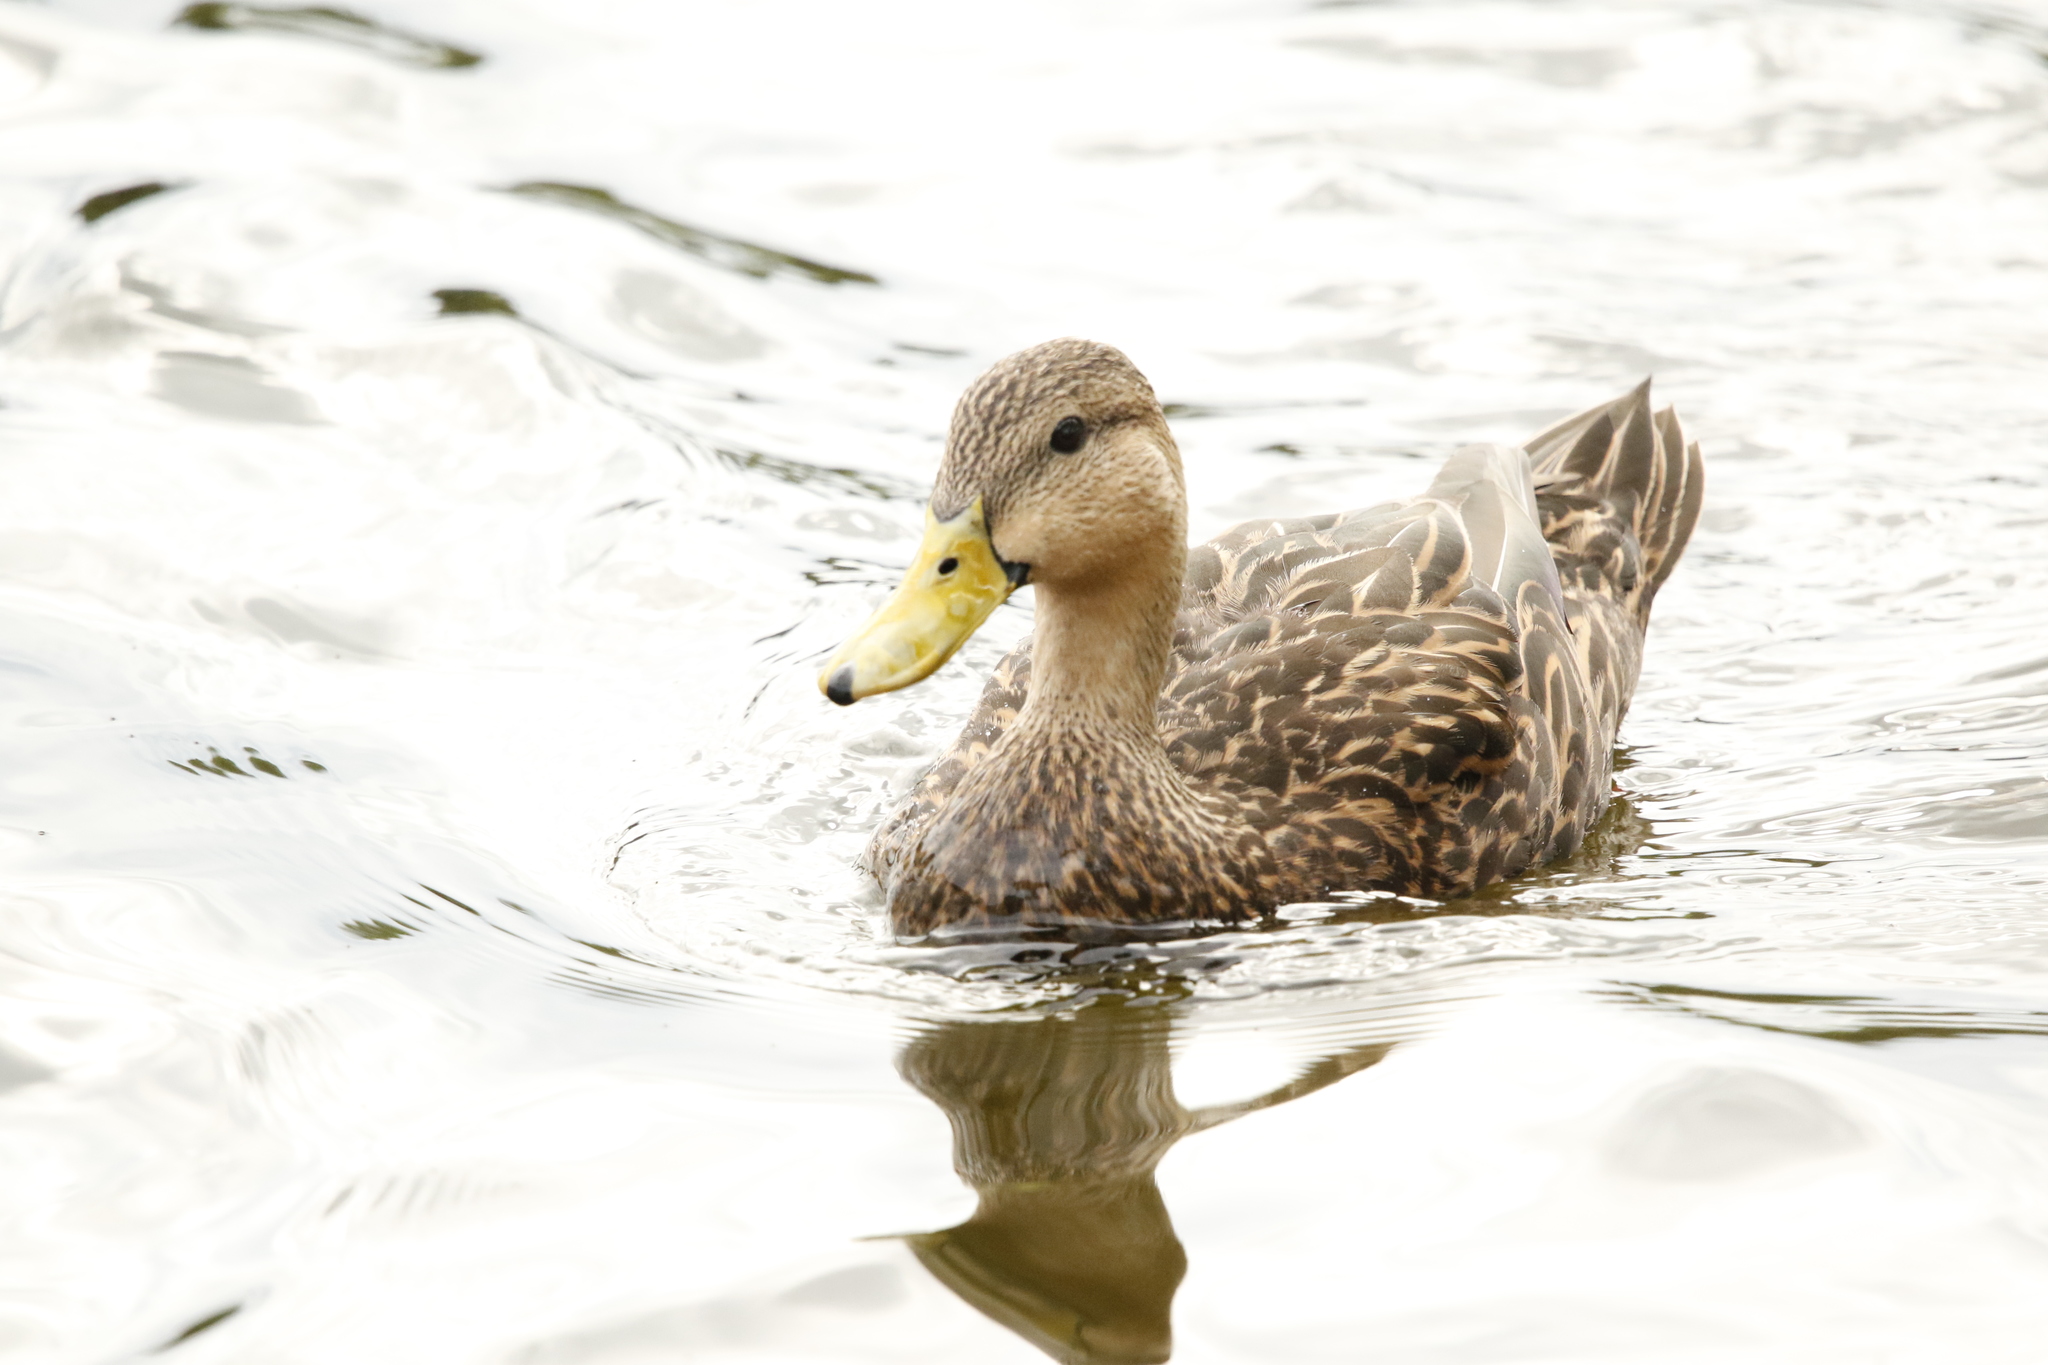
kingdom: Animalia
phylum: Chordata
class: Aves
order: Anseriformes
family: Anatidae
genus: Anas
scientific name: Anas fulvigula
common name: Mottled duck
